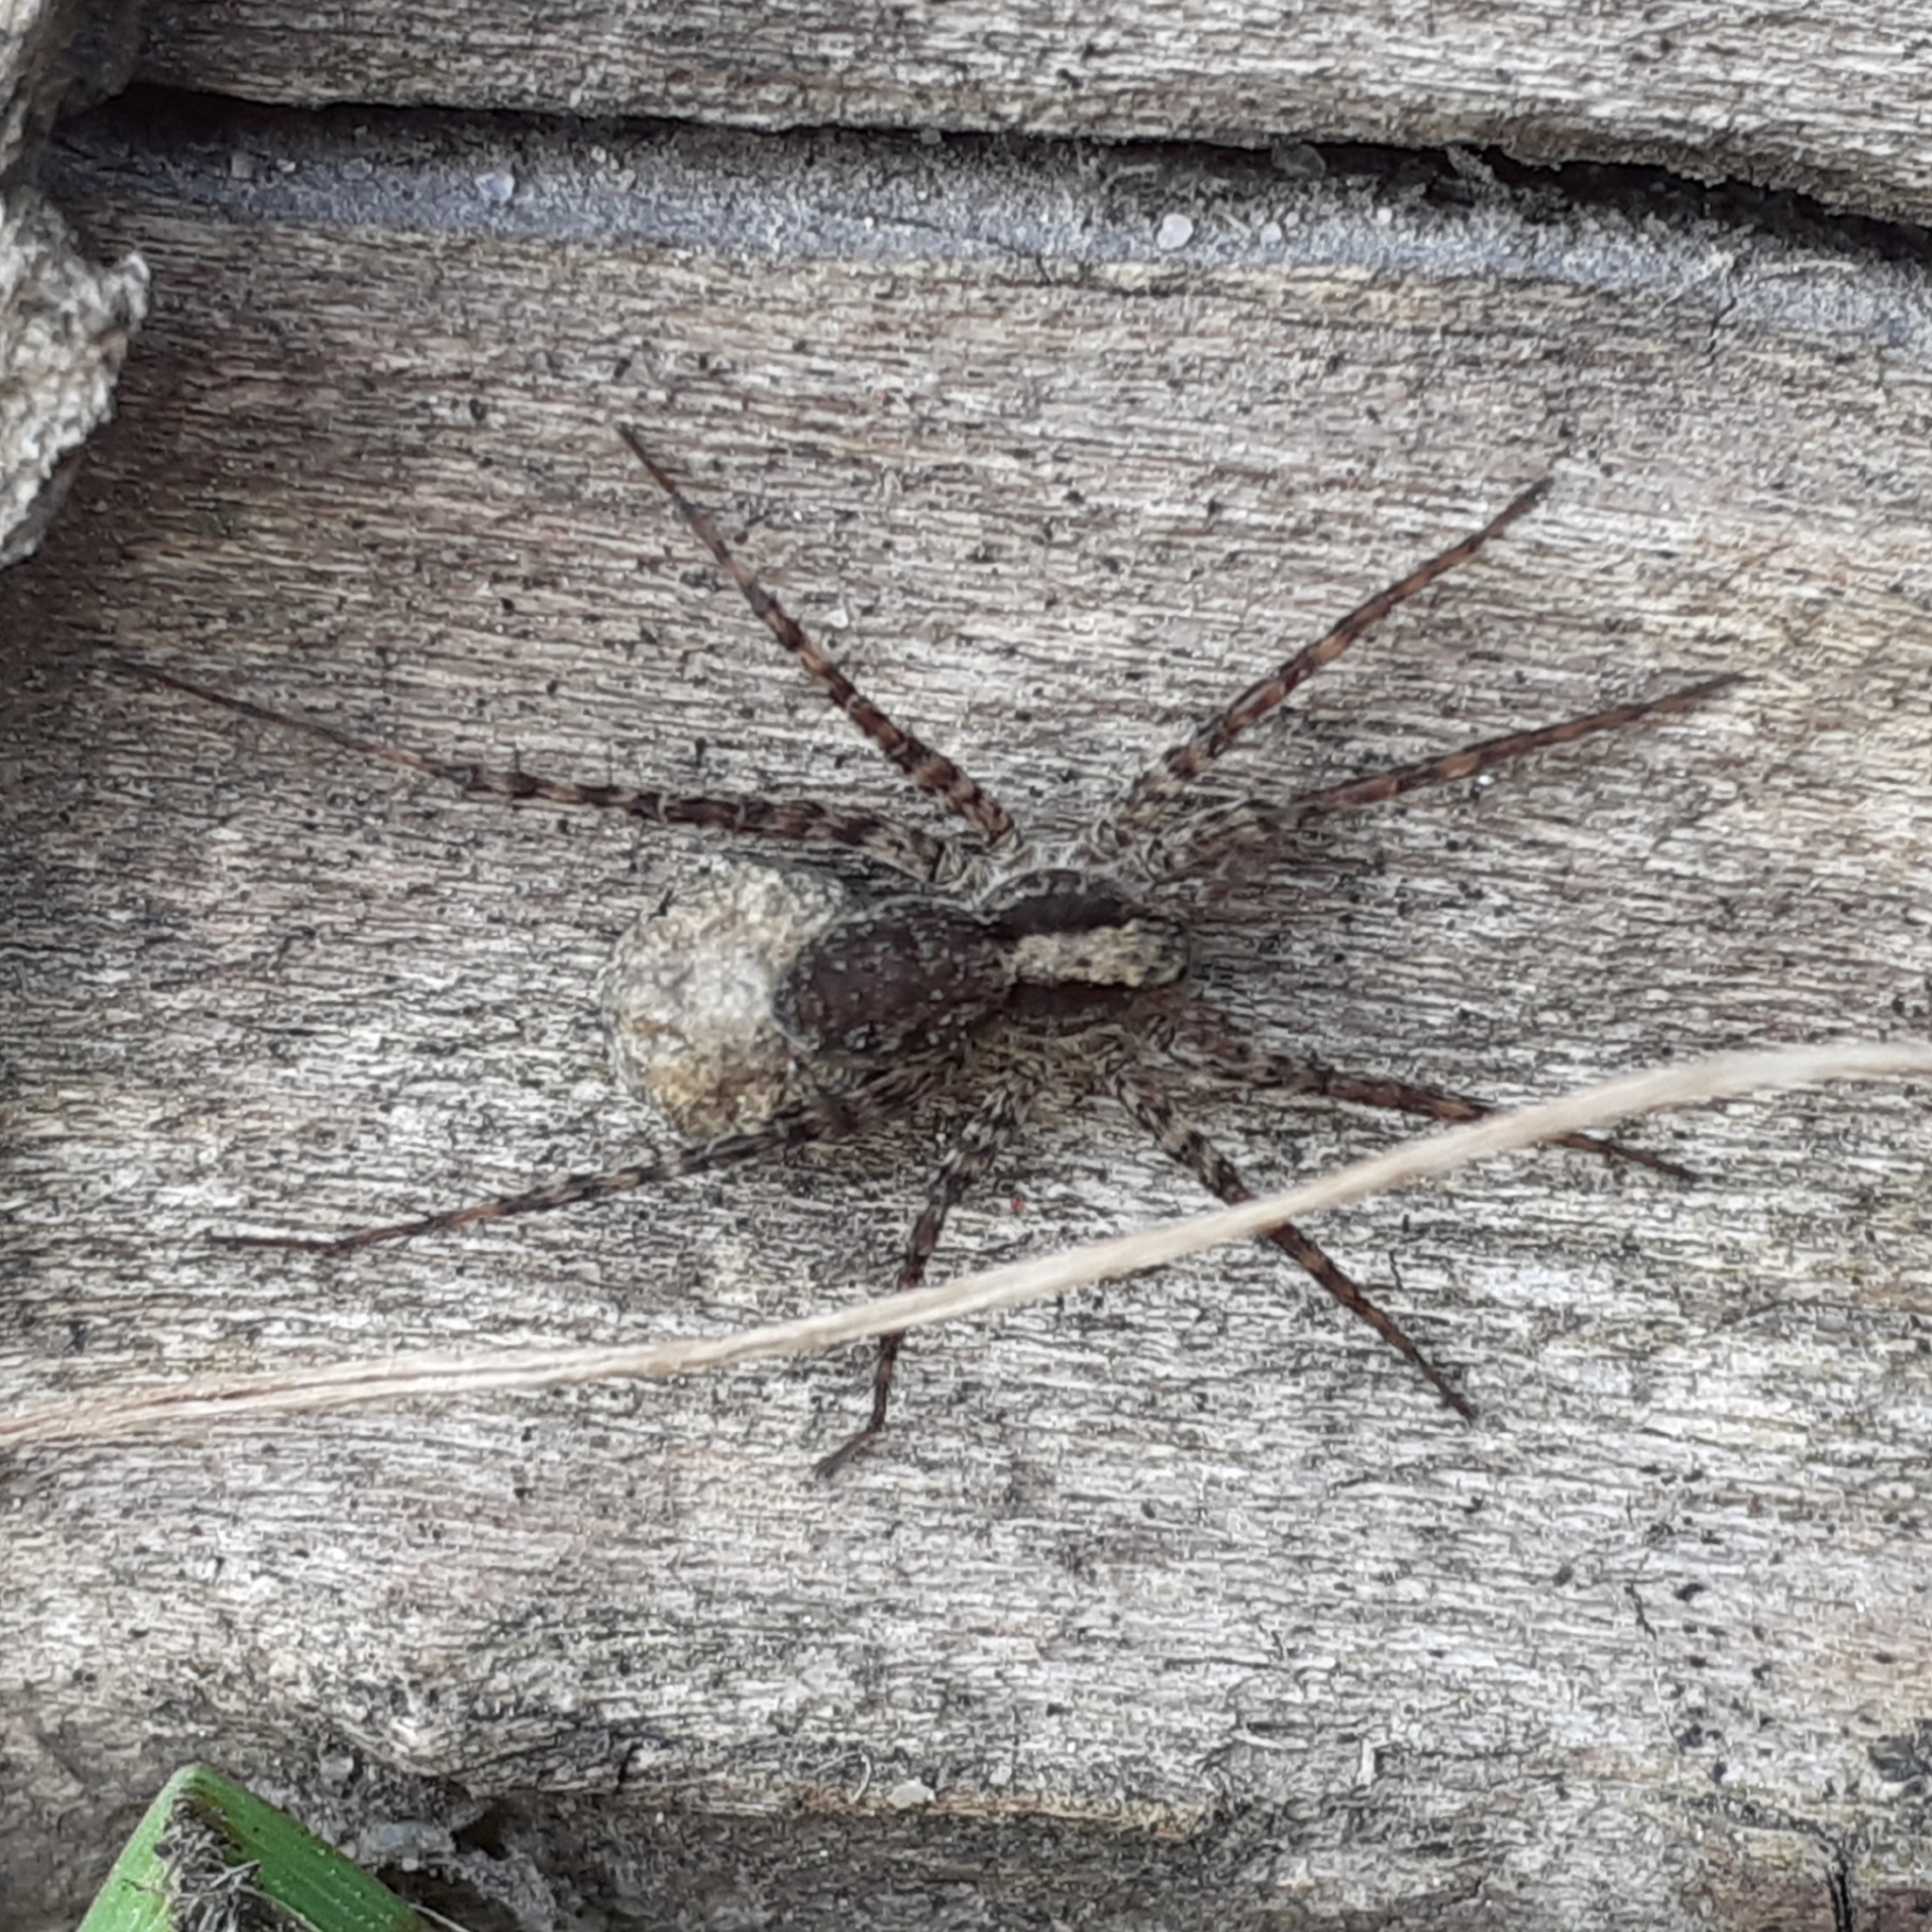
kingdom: Animalia
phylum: Arthropoda
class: Arachnida
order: Araneae
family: Lycosidae
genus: Pardosa
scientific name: Pardosa
